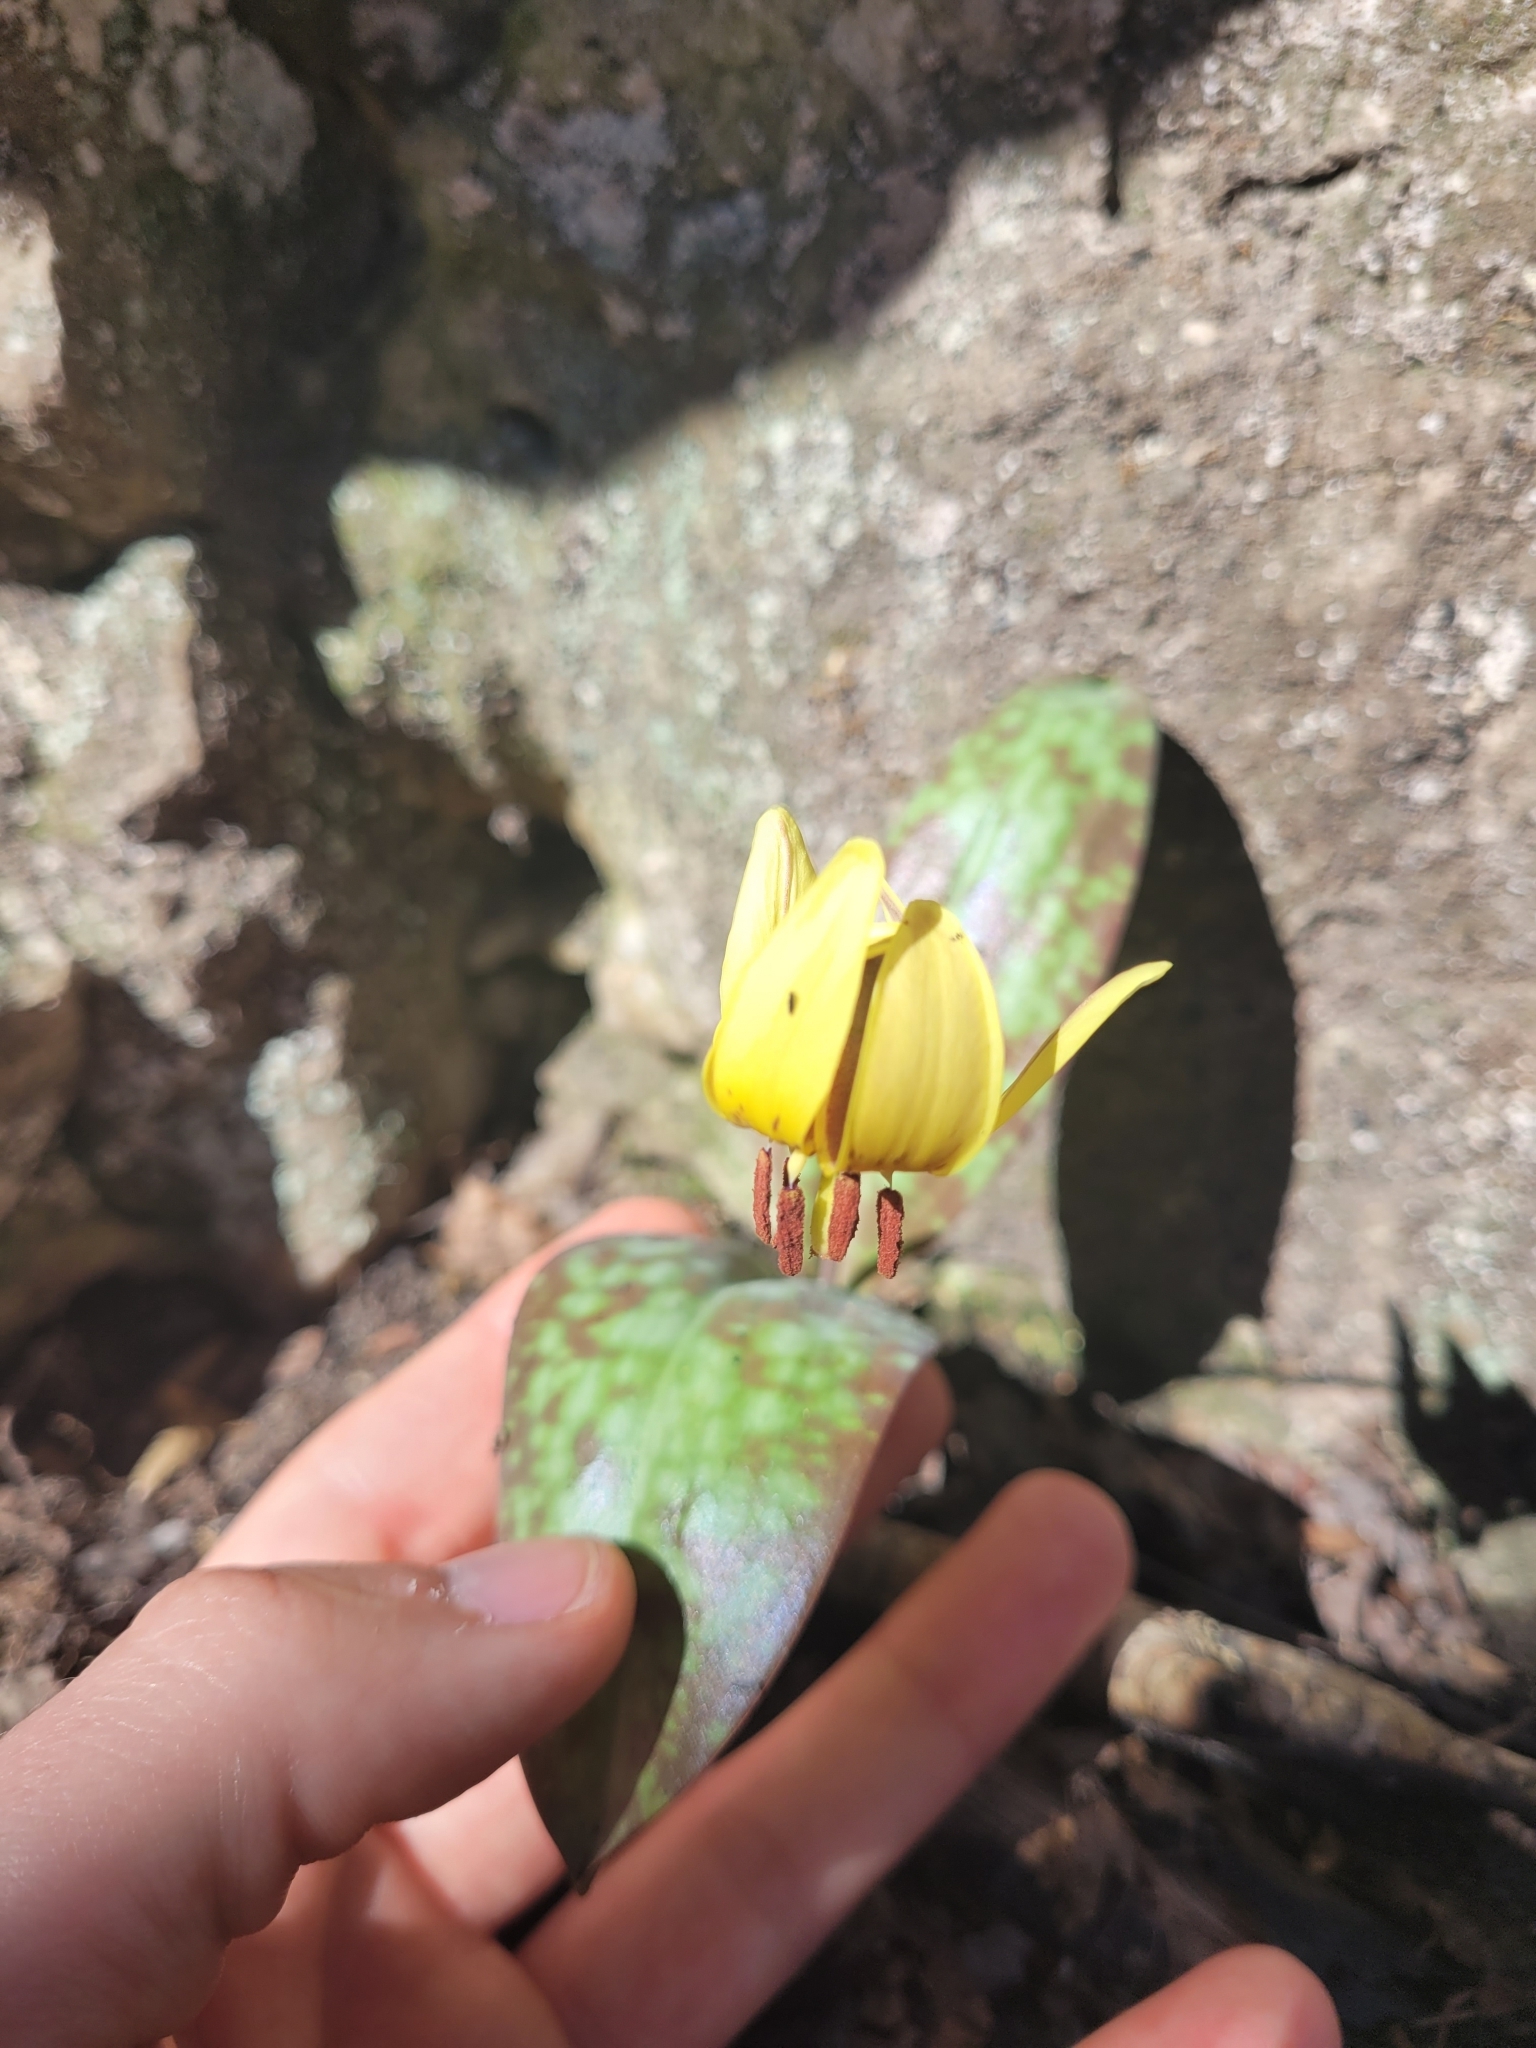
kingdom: Plantae
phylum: Tracheophyta
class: Liliopsida
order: Liliales
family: Liliaceae
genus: Erythronium
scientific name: Erythronium umbilicatum
